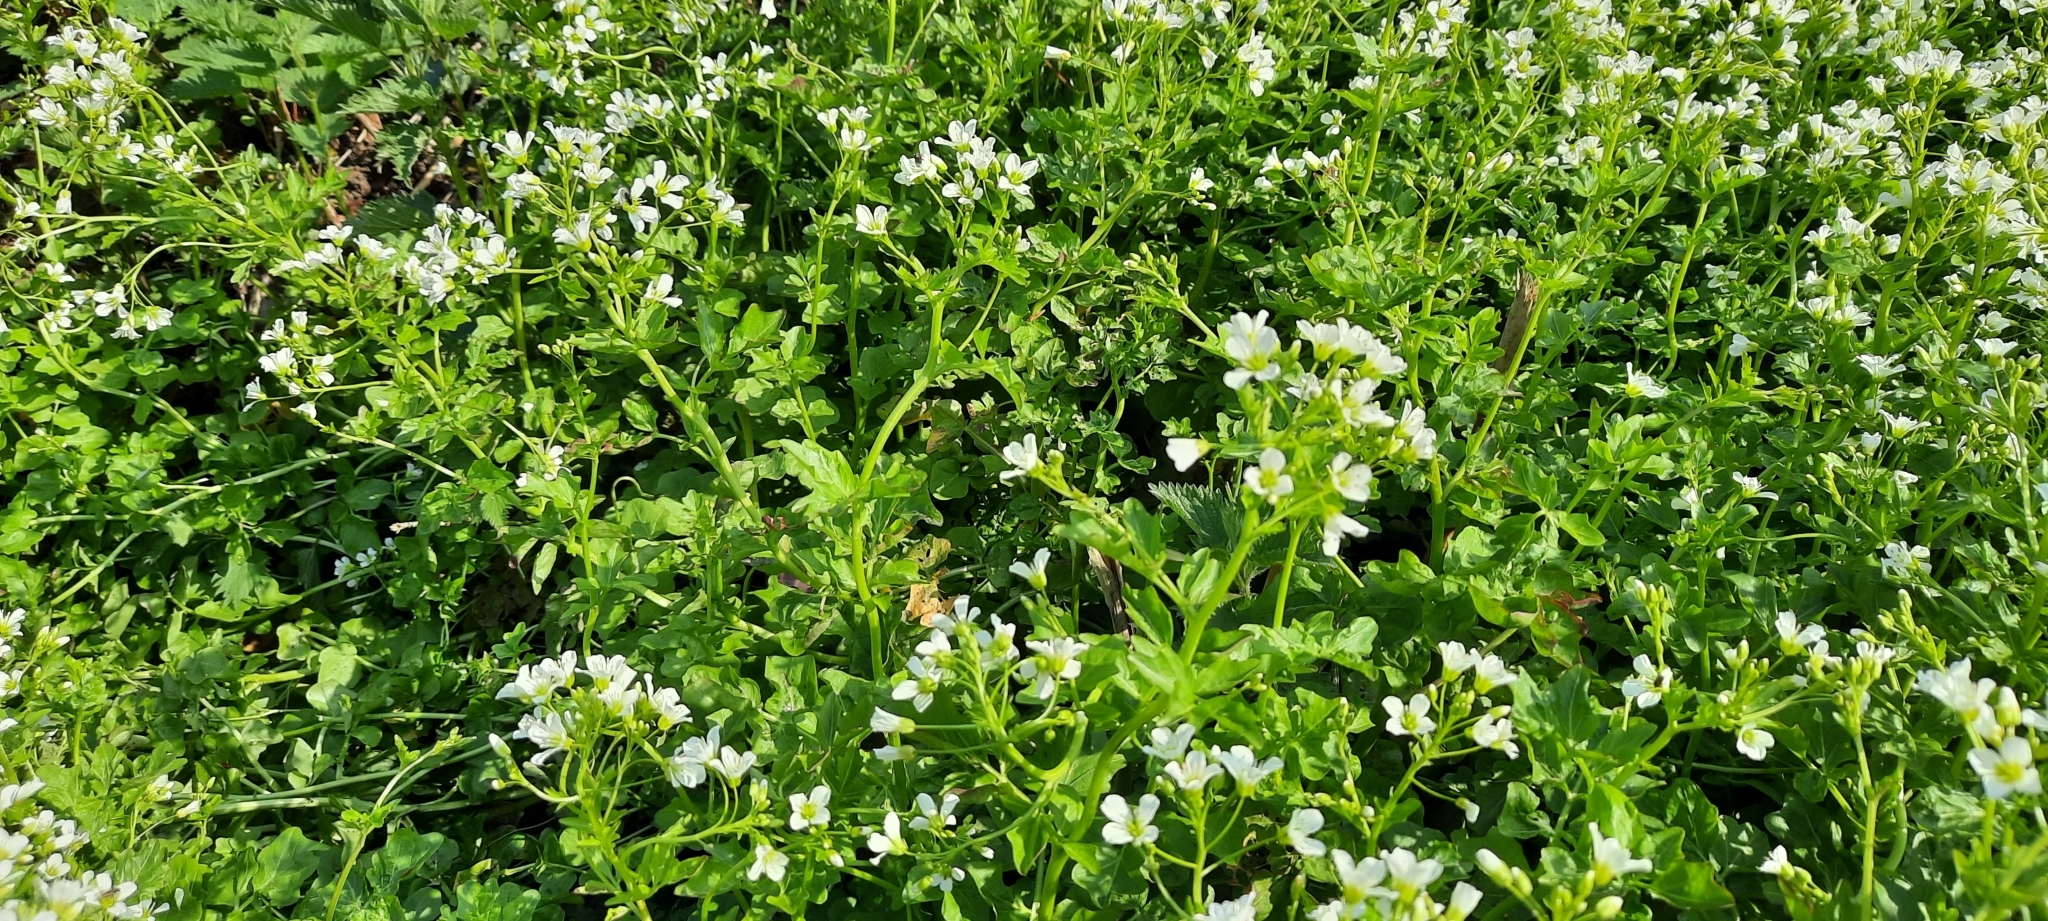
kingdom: Plantae
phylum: Tracheophyta
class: Magnoliopsida
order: Brassicales
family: Brassicaceae
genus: Cardamine
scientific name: Cardamine amara
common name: Large bitter-cress
